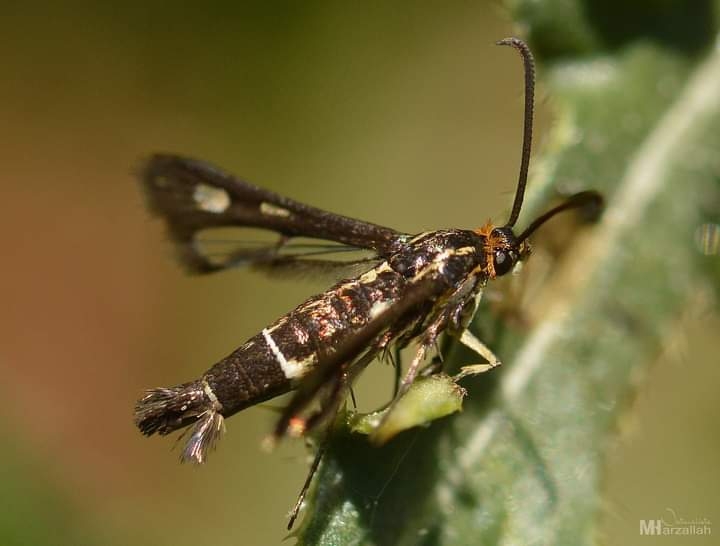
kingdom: Animalia
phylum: Arthropoda
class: Insecta
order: Lepidoptera
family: Sesiidae
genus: Chamaesphecia
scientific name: Chamaesphecia aerifrons
